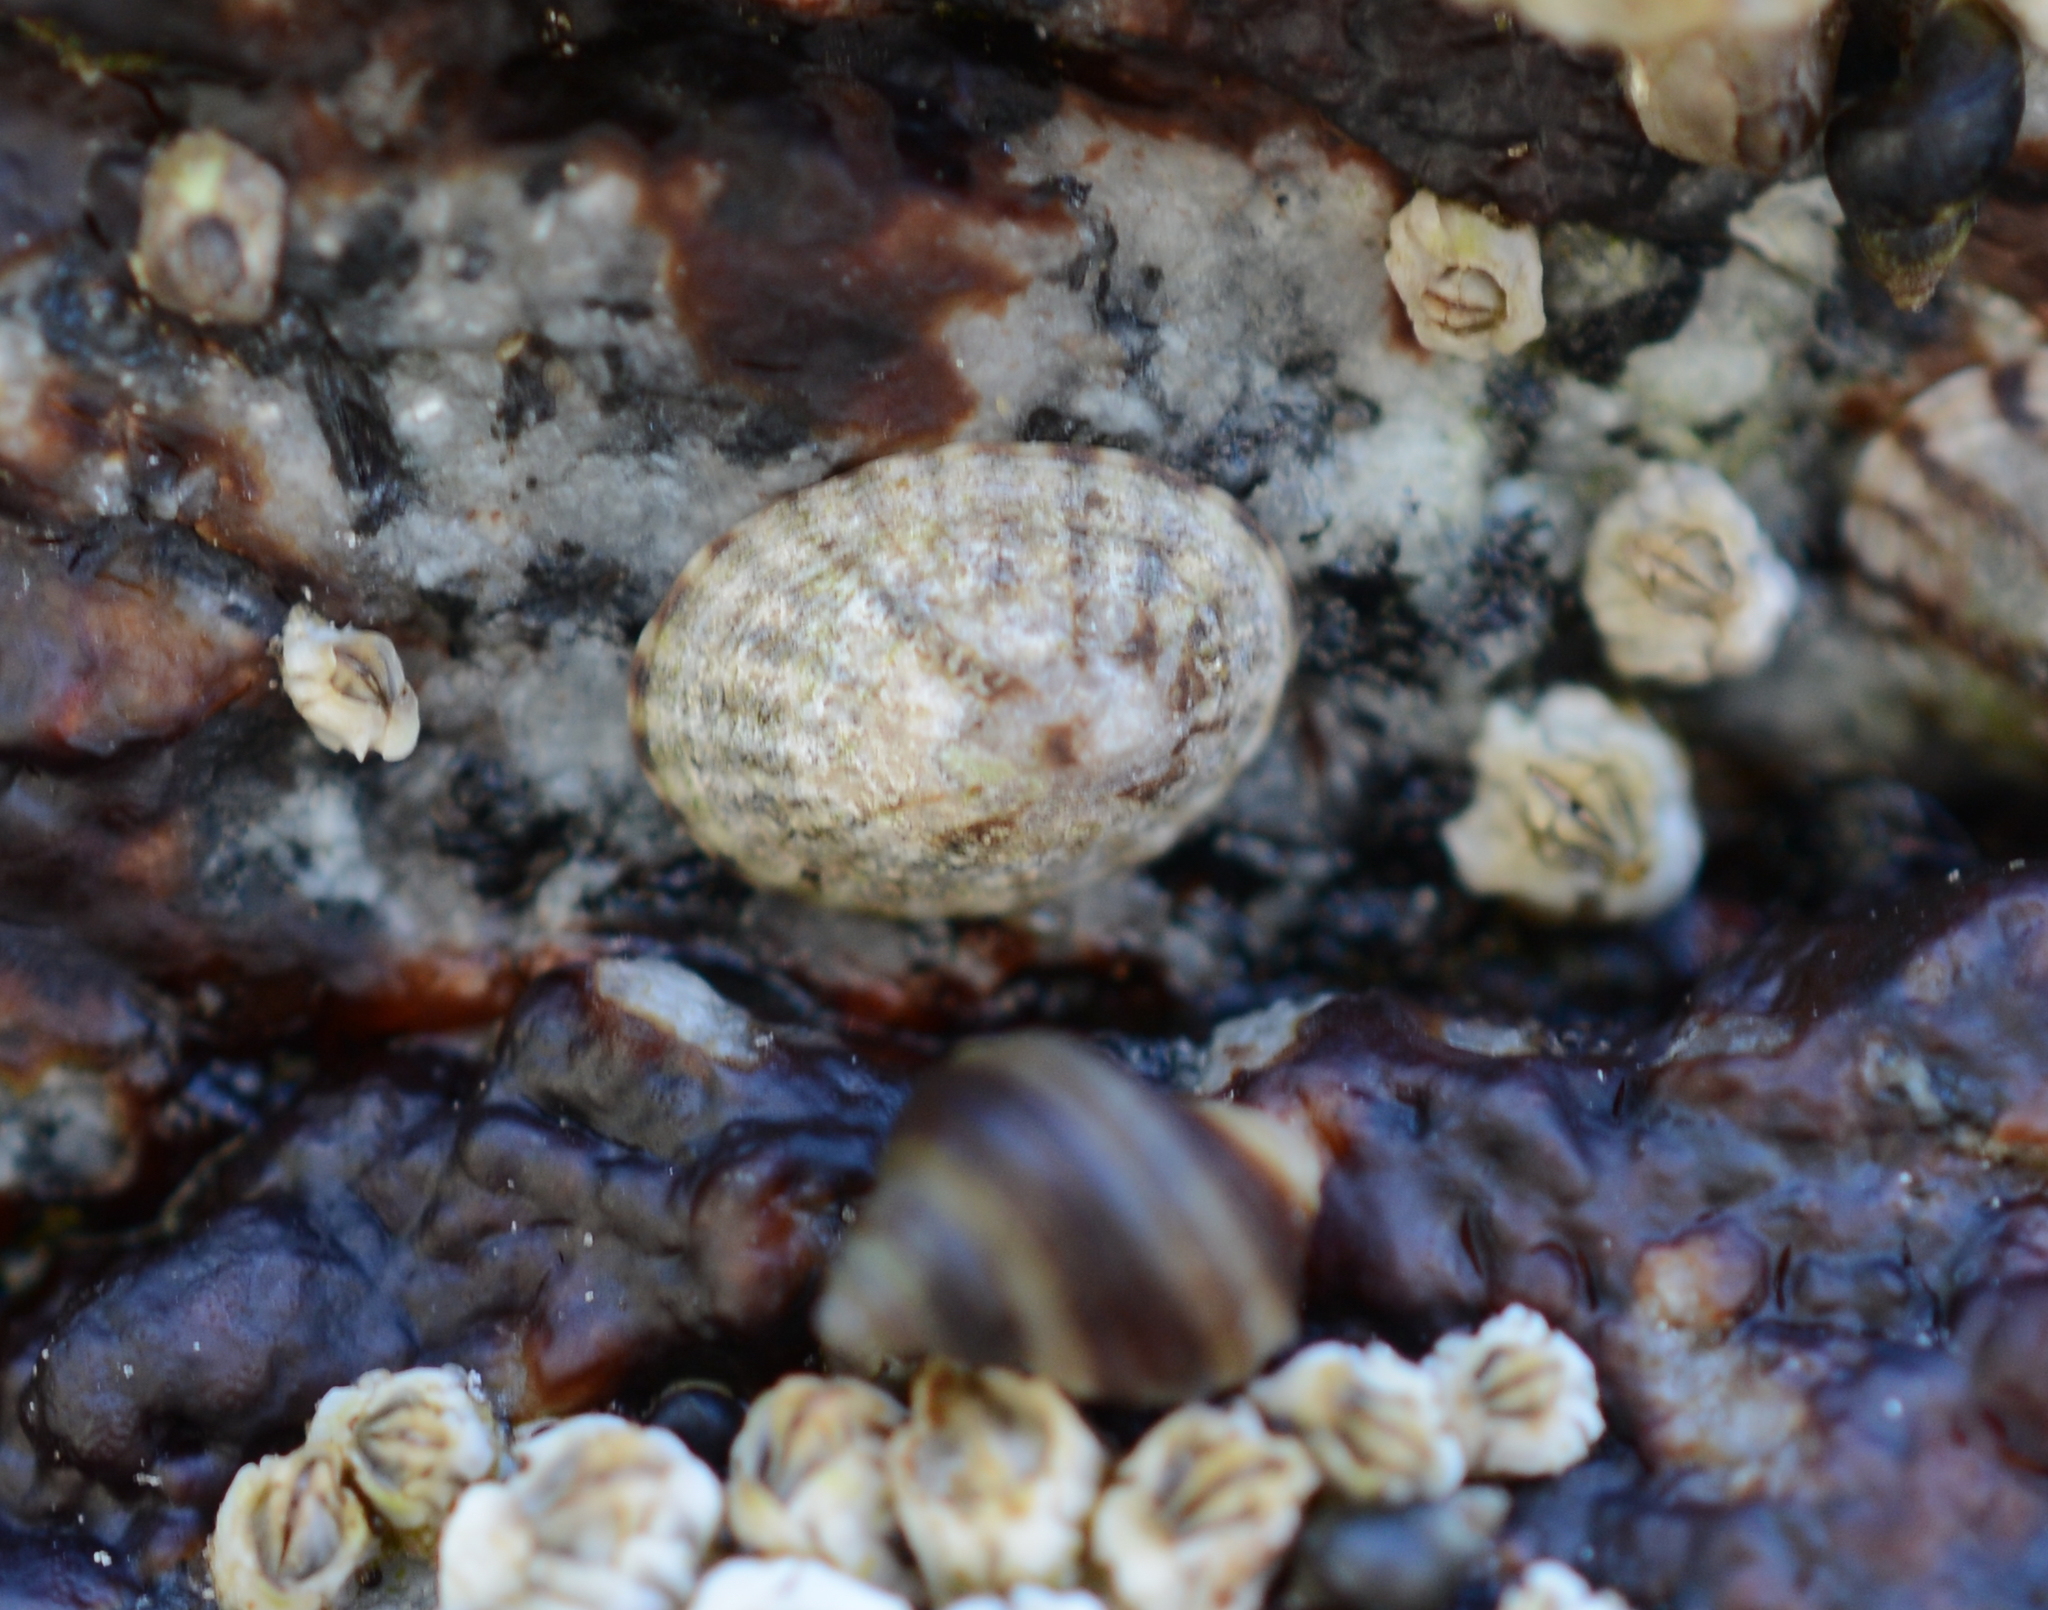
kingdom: Animalia
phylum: Mollusca
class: Gastropoda
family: Lottiidae
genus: Lottia
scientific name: Lottia digitalis
